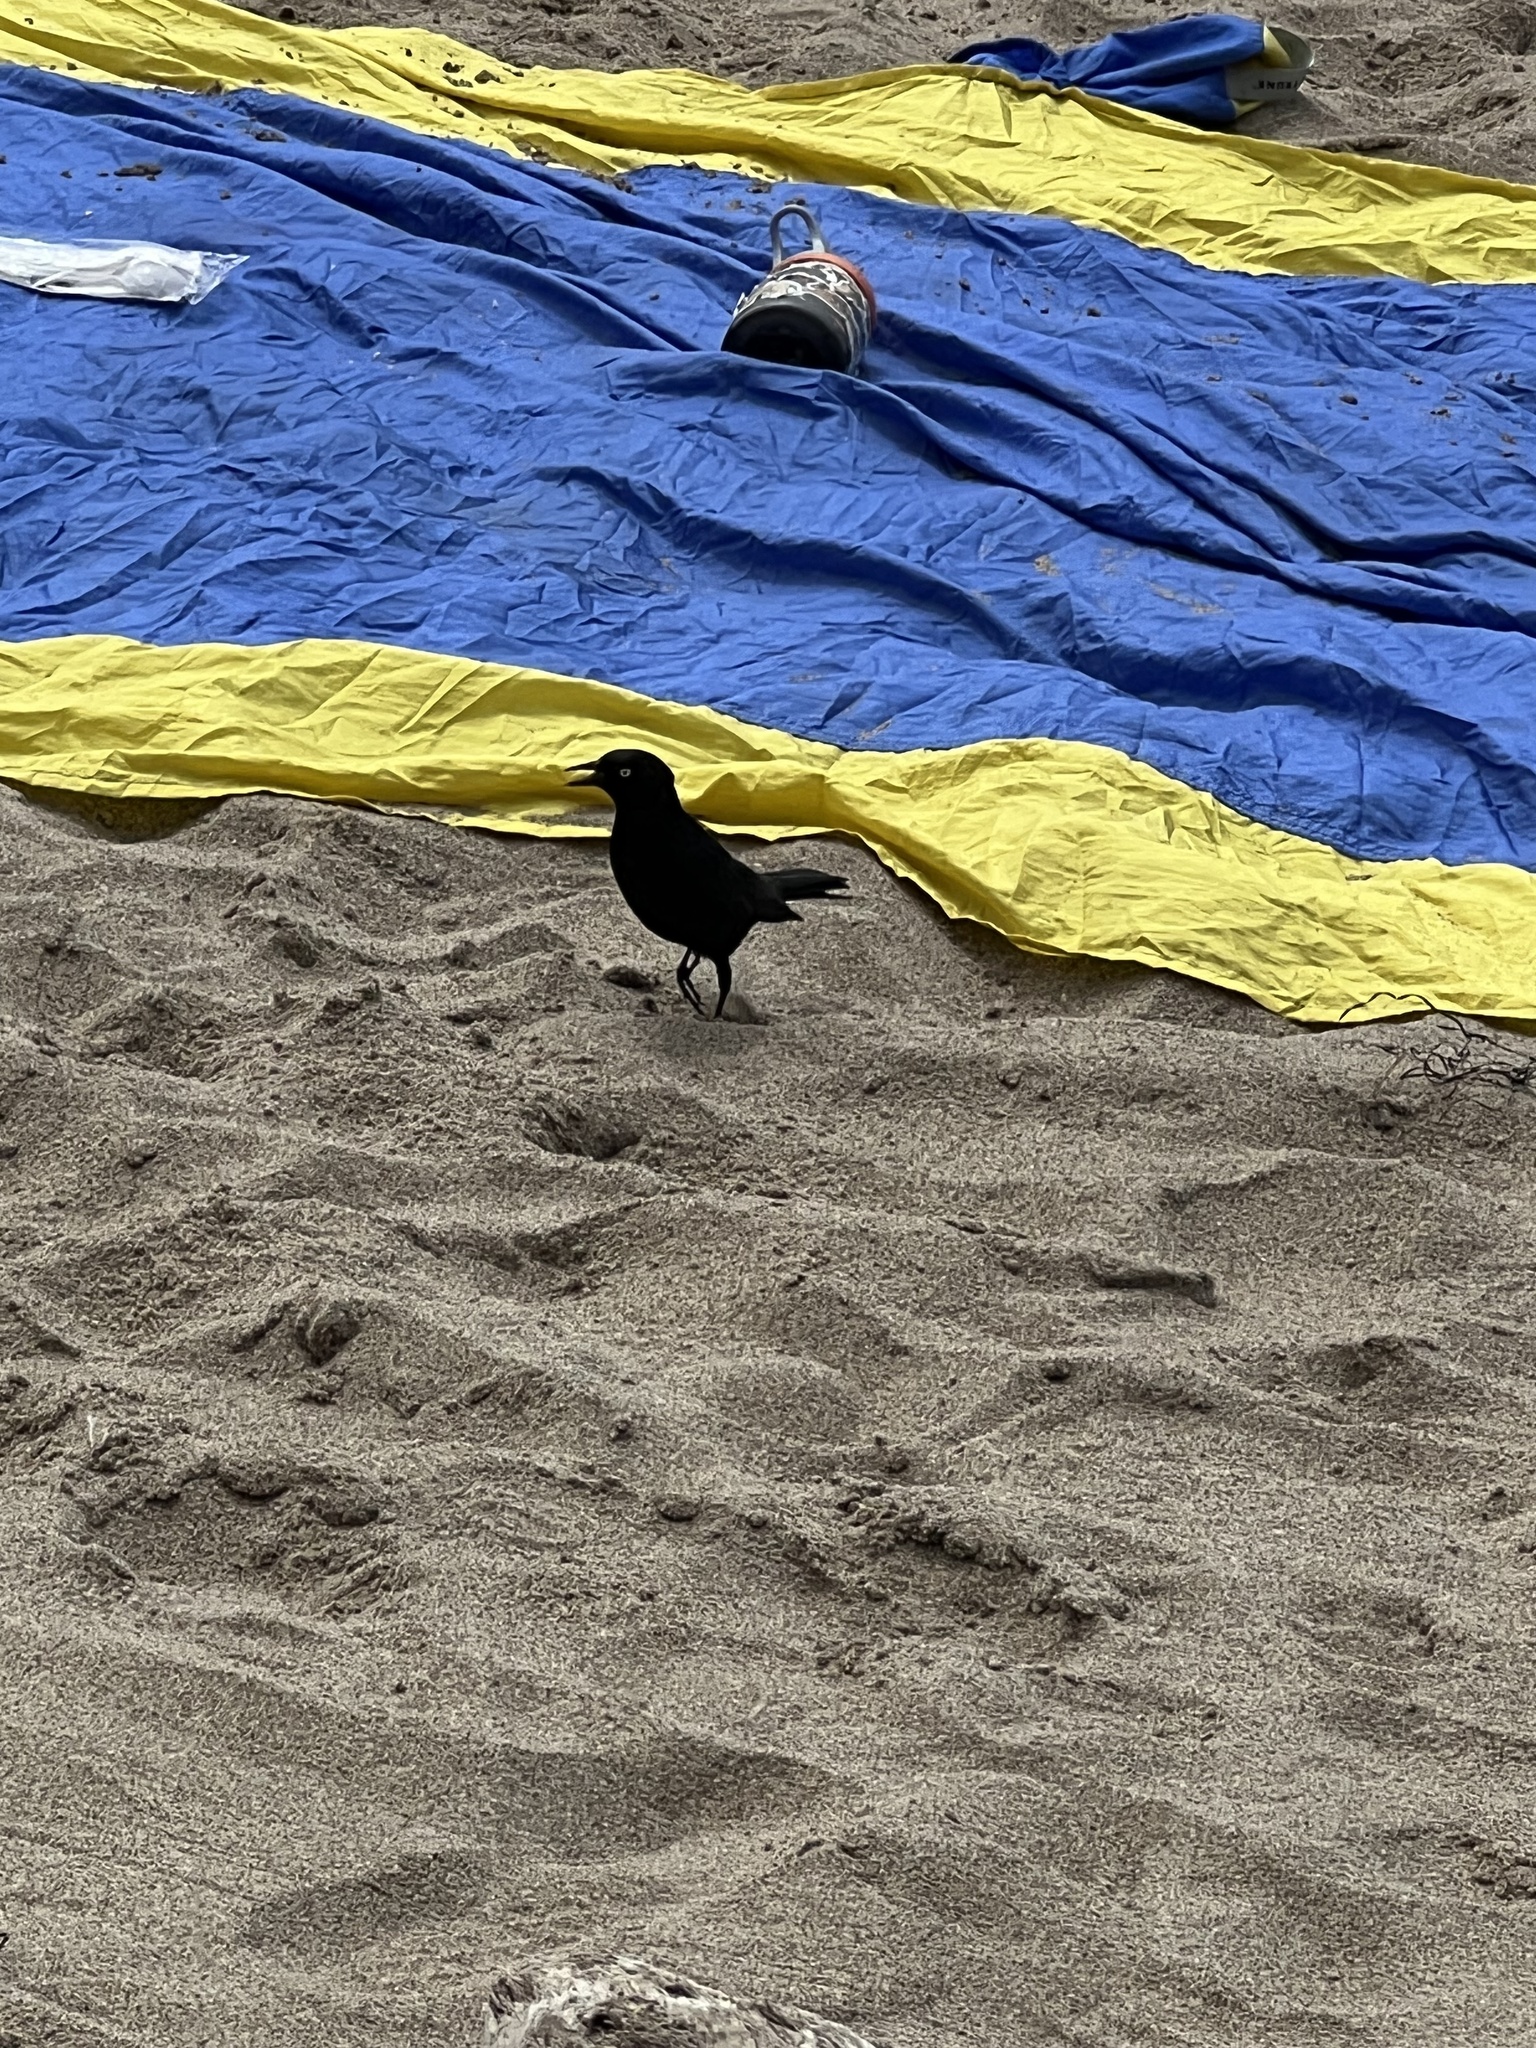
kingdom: Animalia
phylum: Chordata
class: Aves
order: Passeriformes
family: Icteridae
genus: Euphagus
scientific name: Euphagus cyanocephalus
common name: Brewer's blackbird
